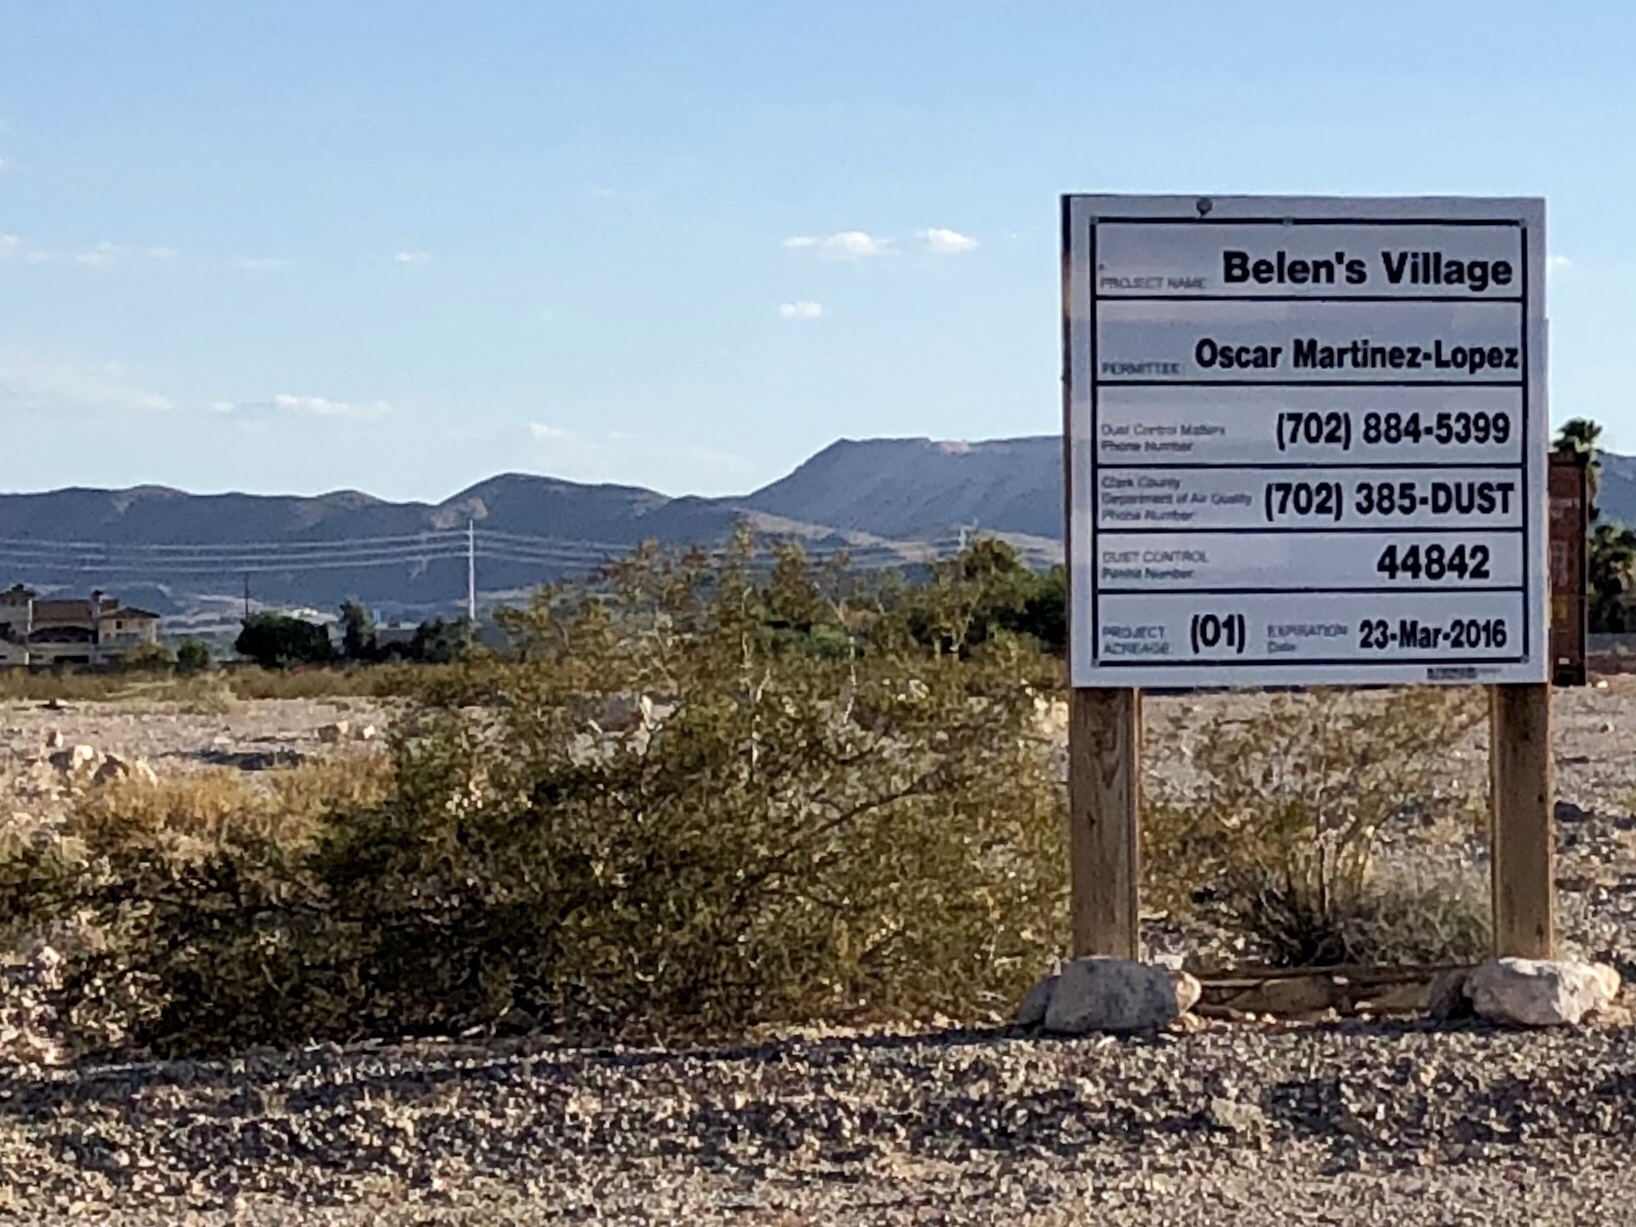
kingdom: Plantae
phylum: Tracheophyta
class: Magnoliopsida
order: Zygophyllales
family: Zygophyllaceae
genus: Larrea
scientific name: Larrea tridentata
